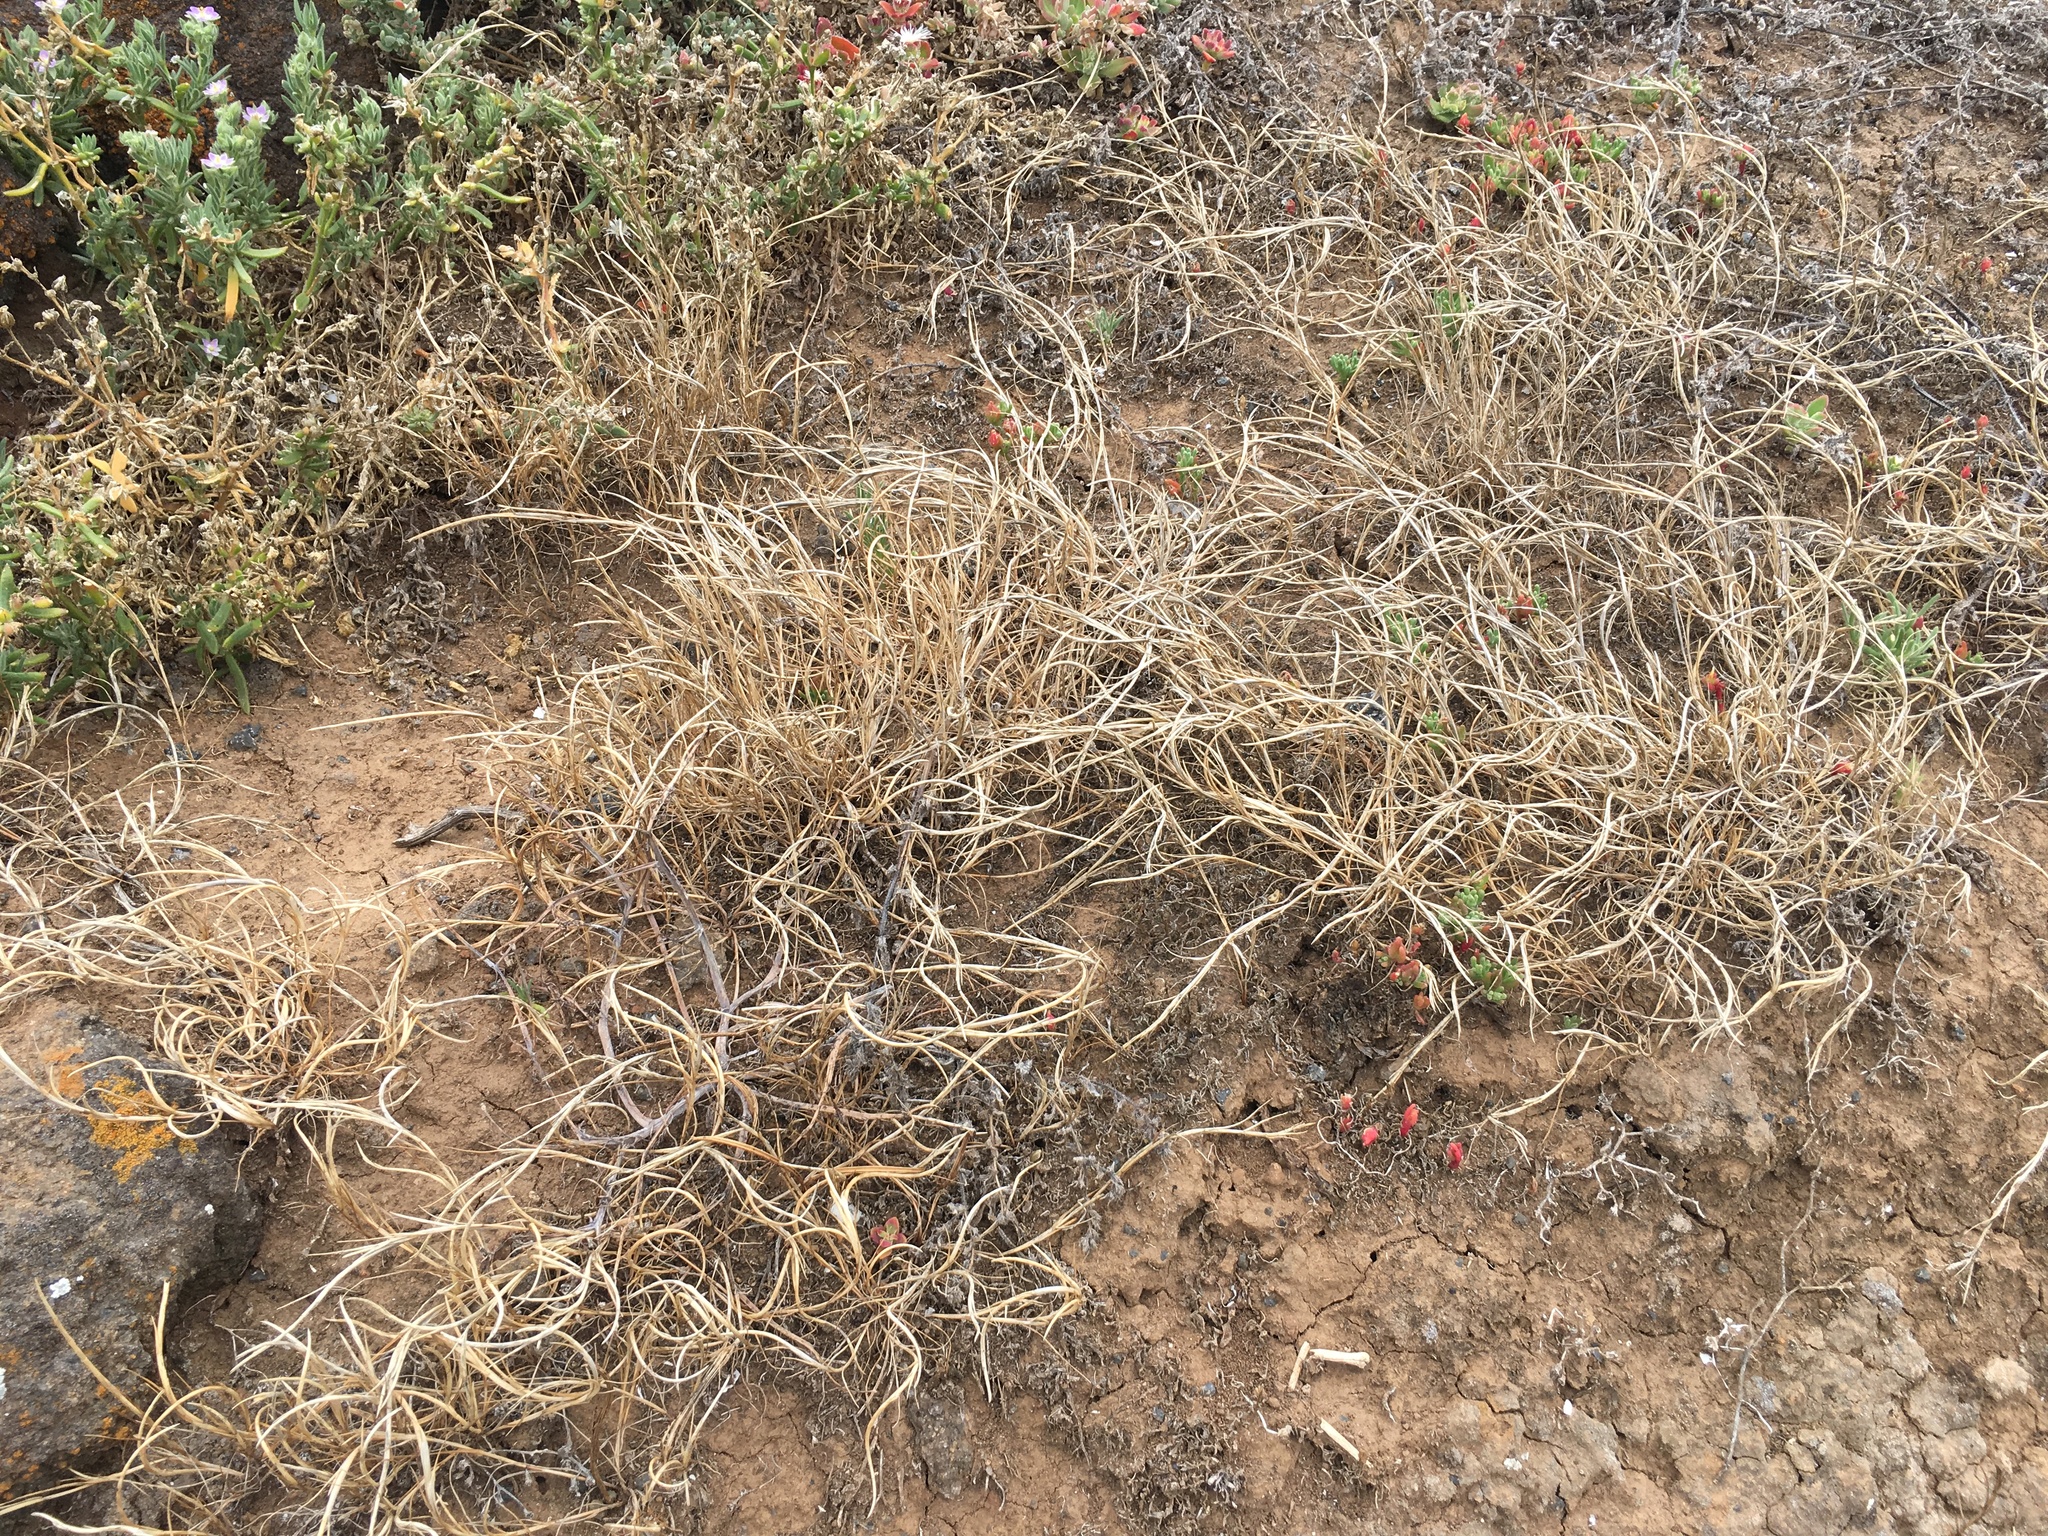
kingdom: Plantae
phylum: Tracheophyta
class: Liliopsida
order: Poales
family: Poaceae
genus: Parapholis
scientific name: Parapholis incurva
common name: Curved sicklegrass
